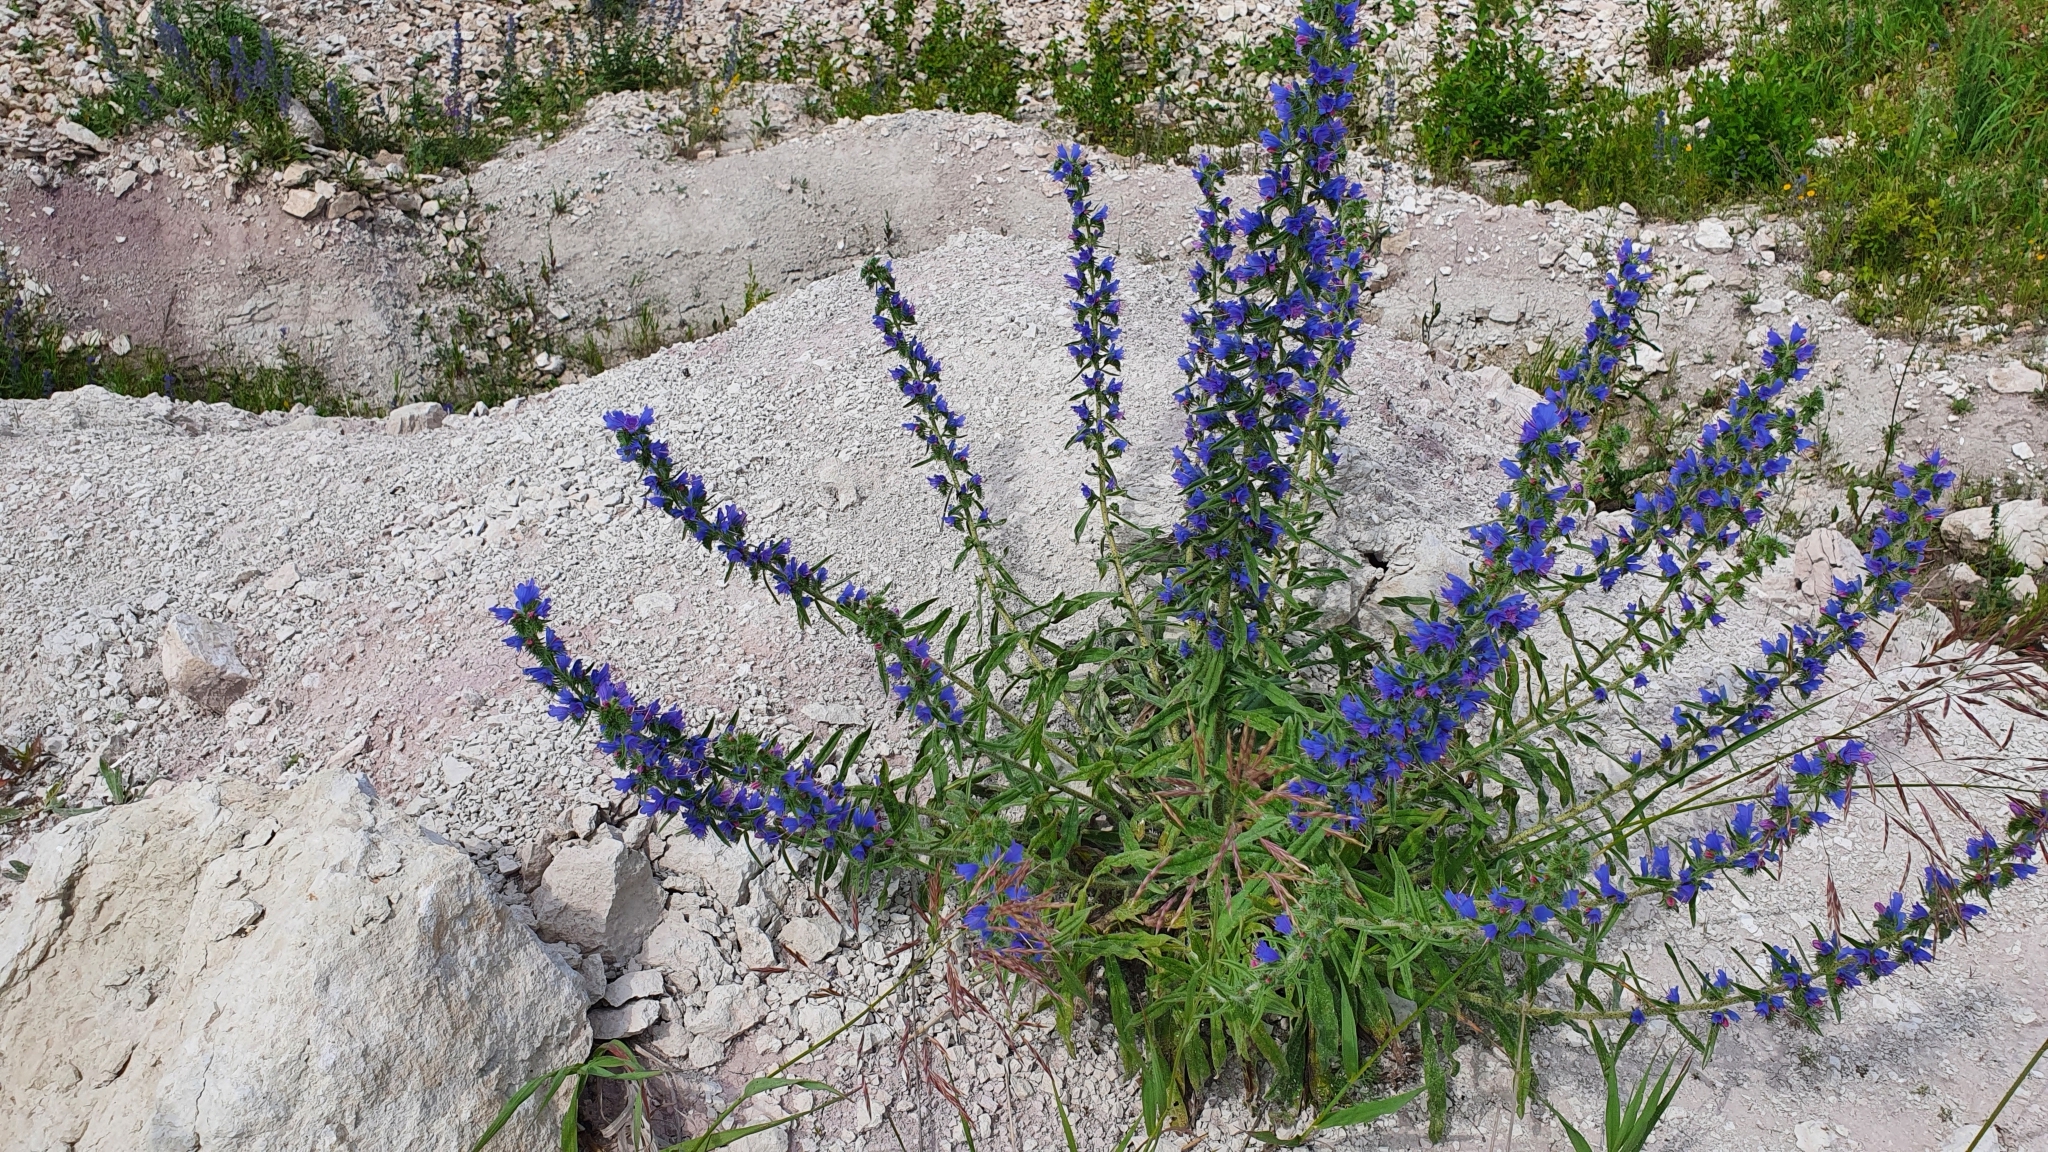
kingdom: Plantae
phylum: Tracheophyta
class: Magnoliopsida
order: Boraginales
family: Boraginaceae
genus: Echium
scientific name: Echium vulgare
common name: Common viper's bugloss
